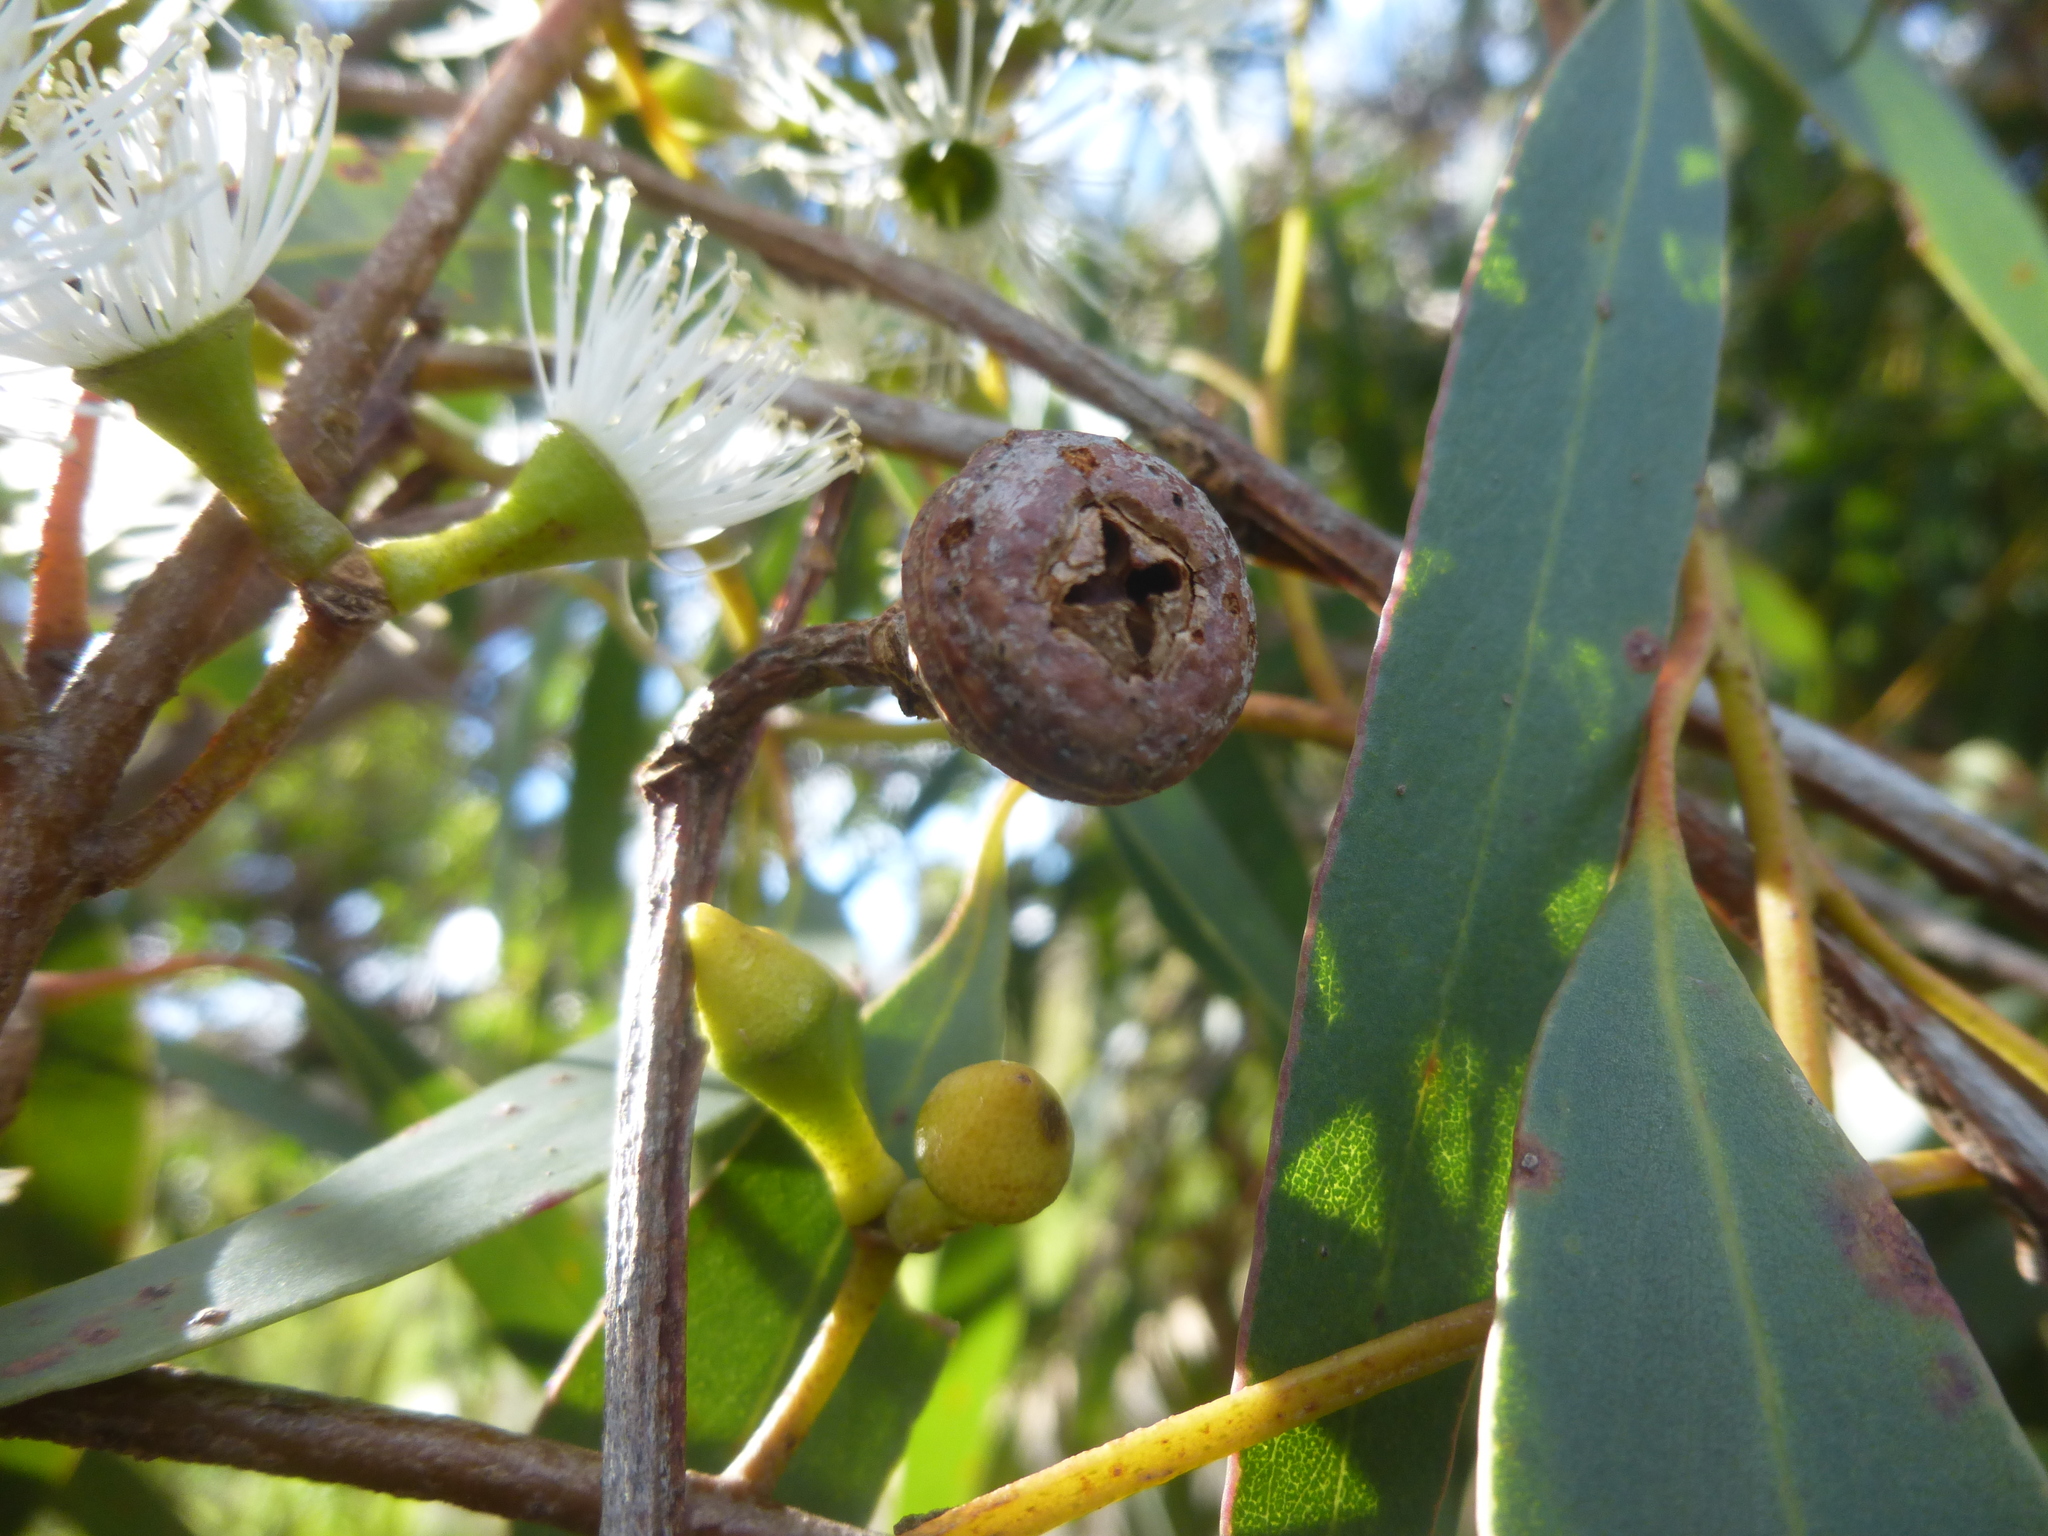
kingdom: Plantae
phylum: Tracheophyta
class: Magnoliopsida
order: Myrtales
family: Myrtaceae
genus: Eucalyptus
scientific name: Eucalyptus diversifolia
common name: Coastal white mallee
